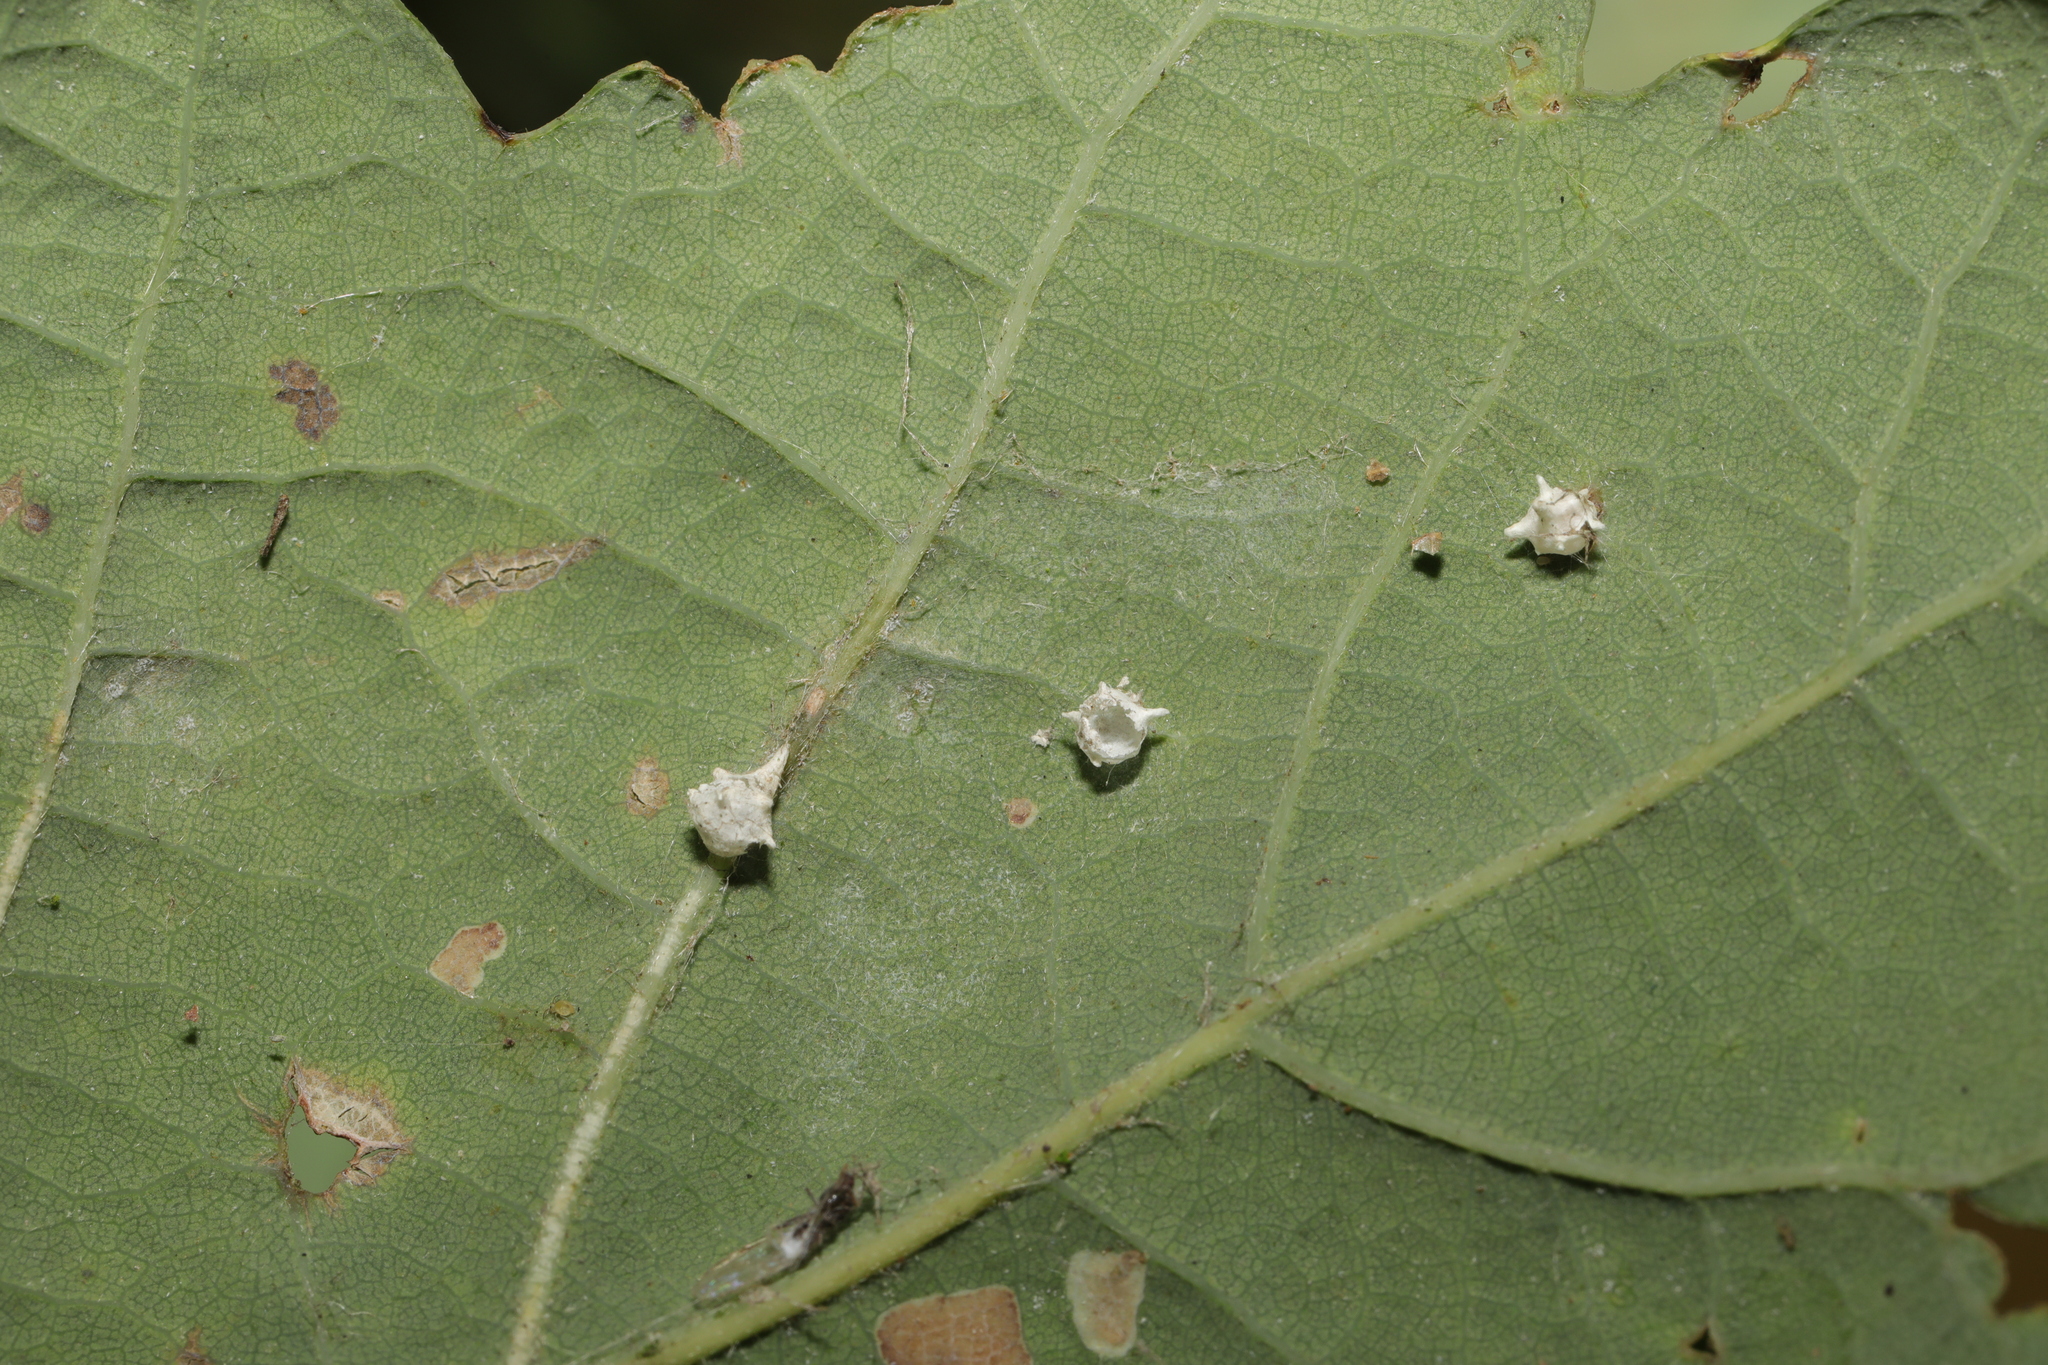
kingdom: Animalia
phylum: Arthropoda
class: Arachnida
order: Araneae
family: Theridiidae
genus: Paidiscura
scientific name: Paidiscura pallens
